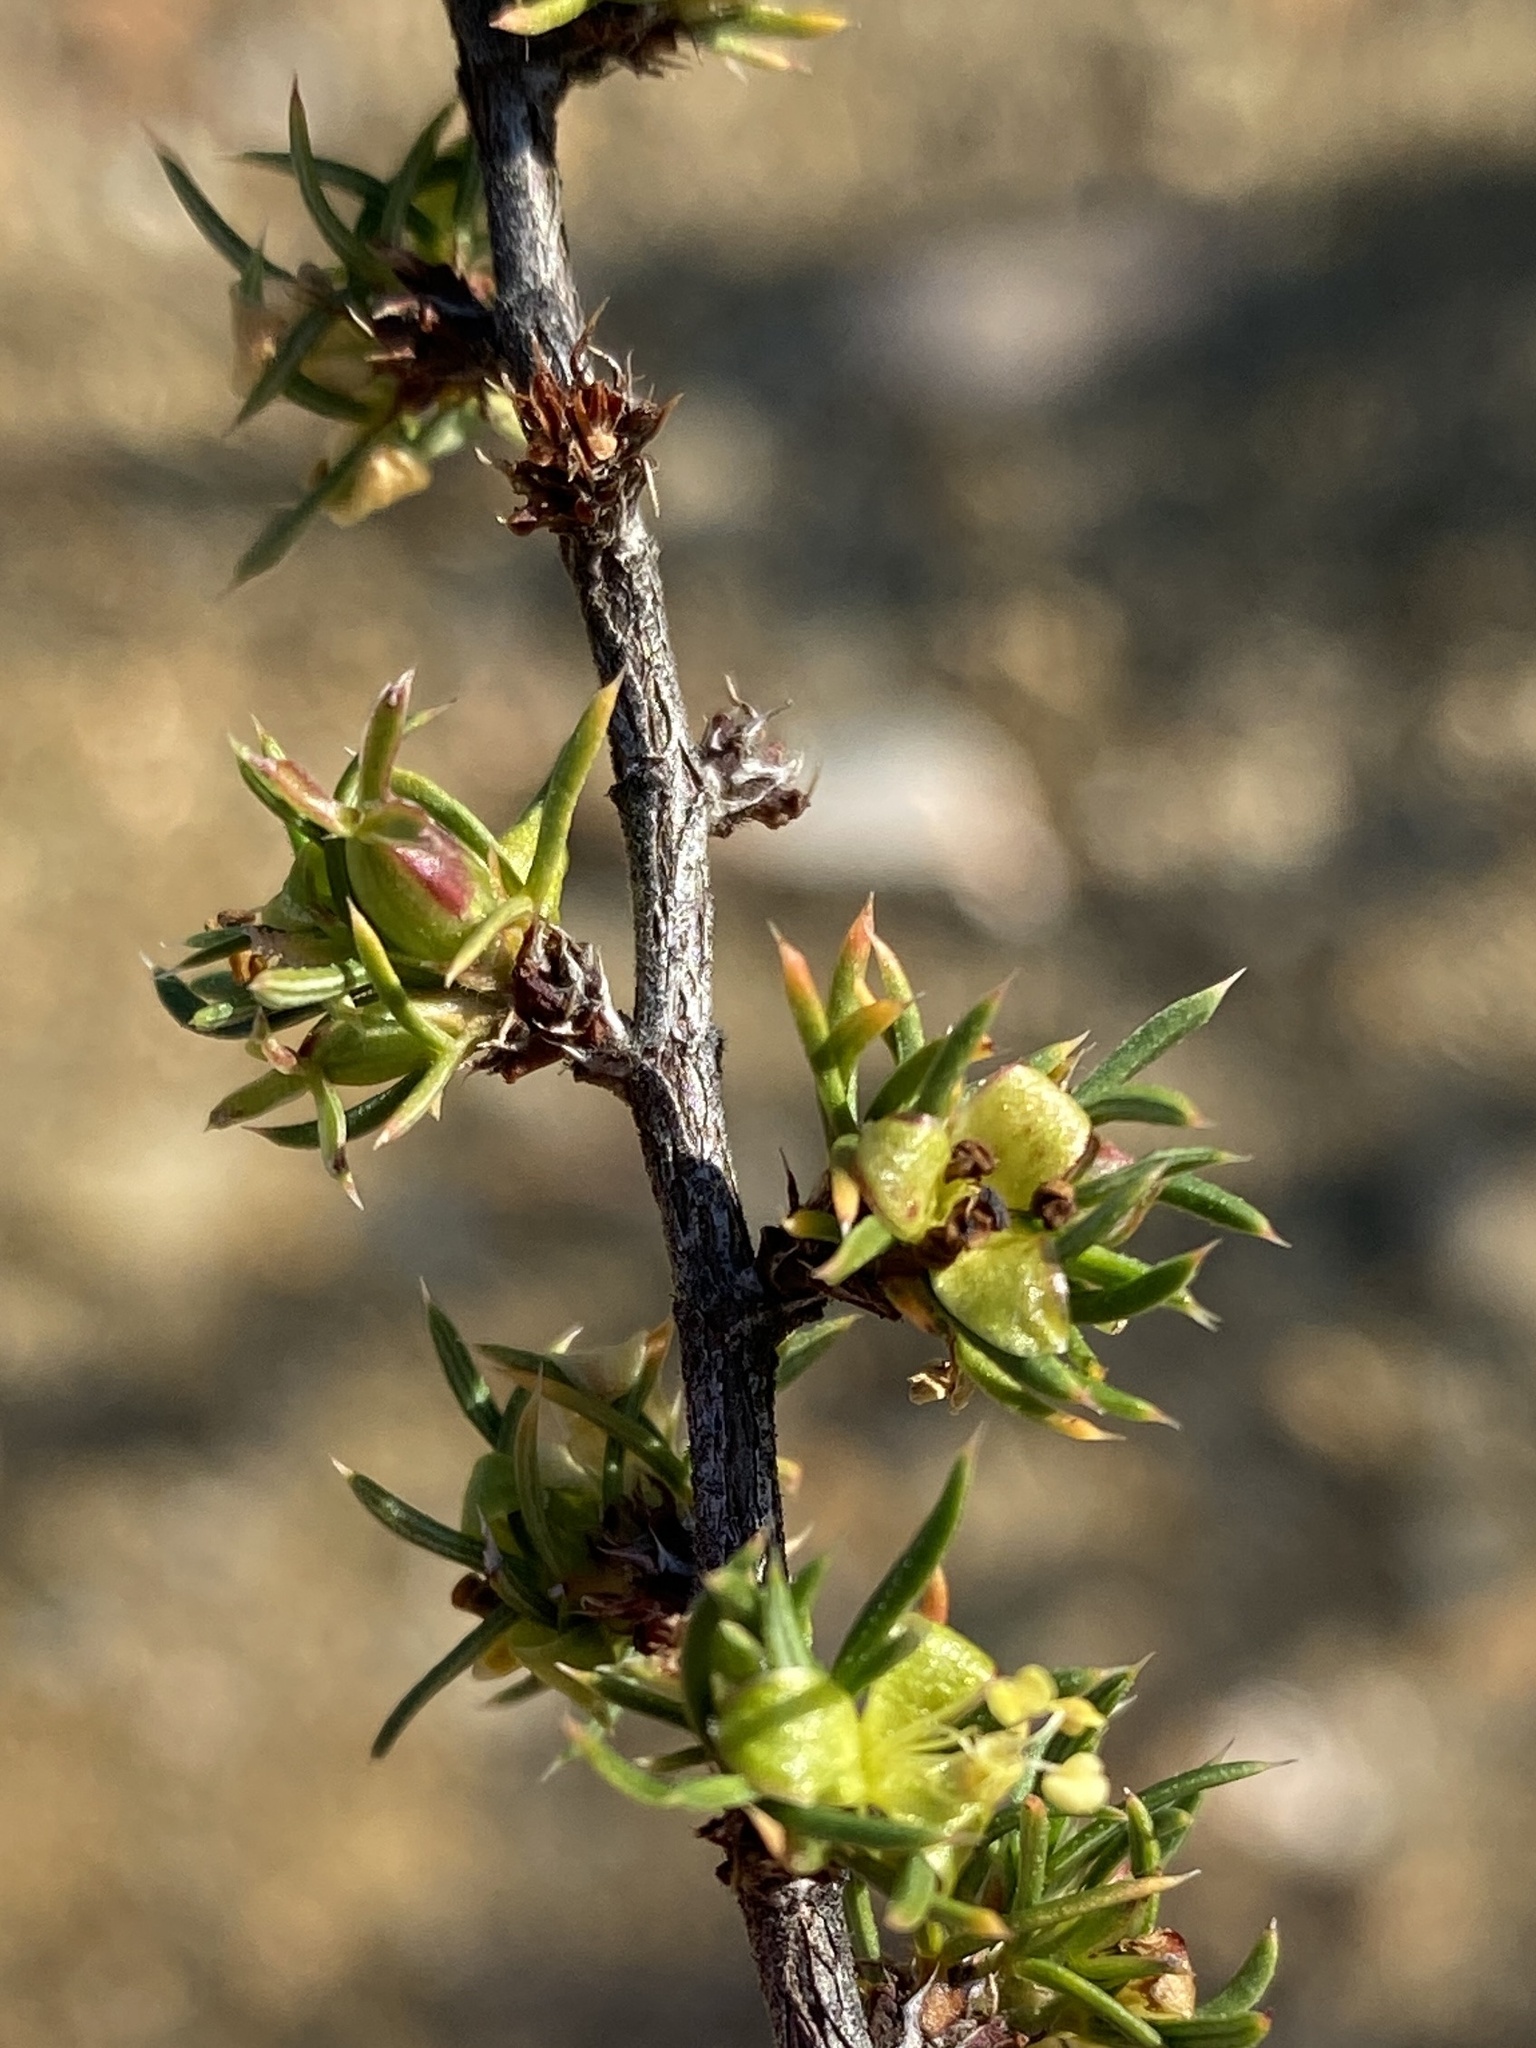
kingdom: Plantae
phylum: Tracheophyta
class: Magnoliopsida
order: Rosales
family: Rosaceae
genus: Cliffortia
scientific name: Cliffortia arcuata
